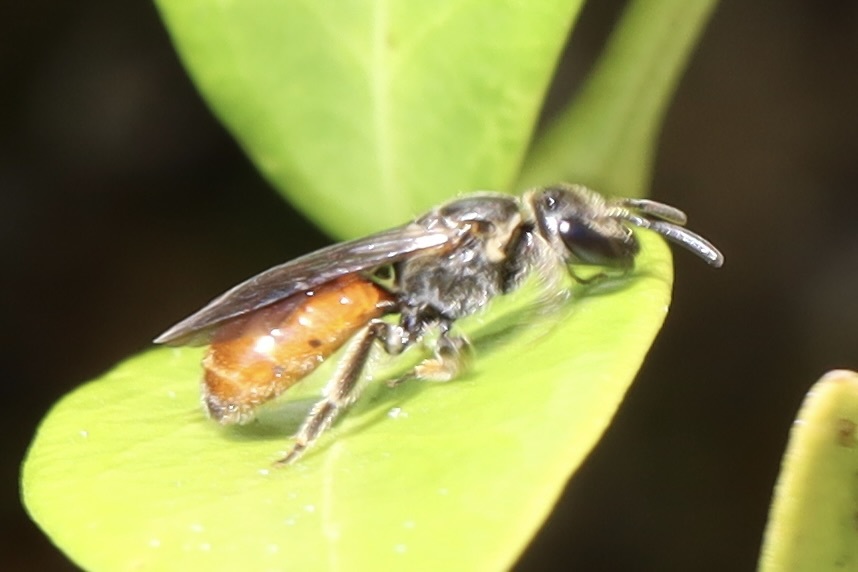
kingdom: Animalia
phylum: Arthropoda
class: Insecta
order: Hymenoptera
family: Halictidae
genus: Lasioglossum
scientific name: Lasioglossum ovaliceps
